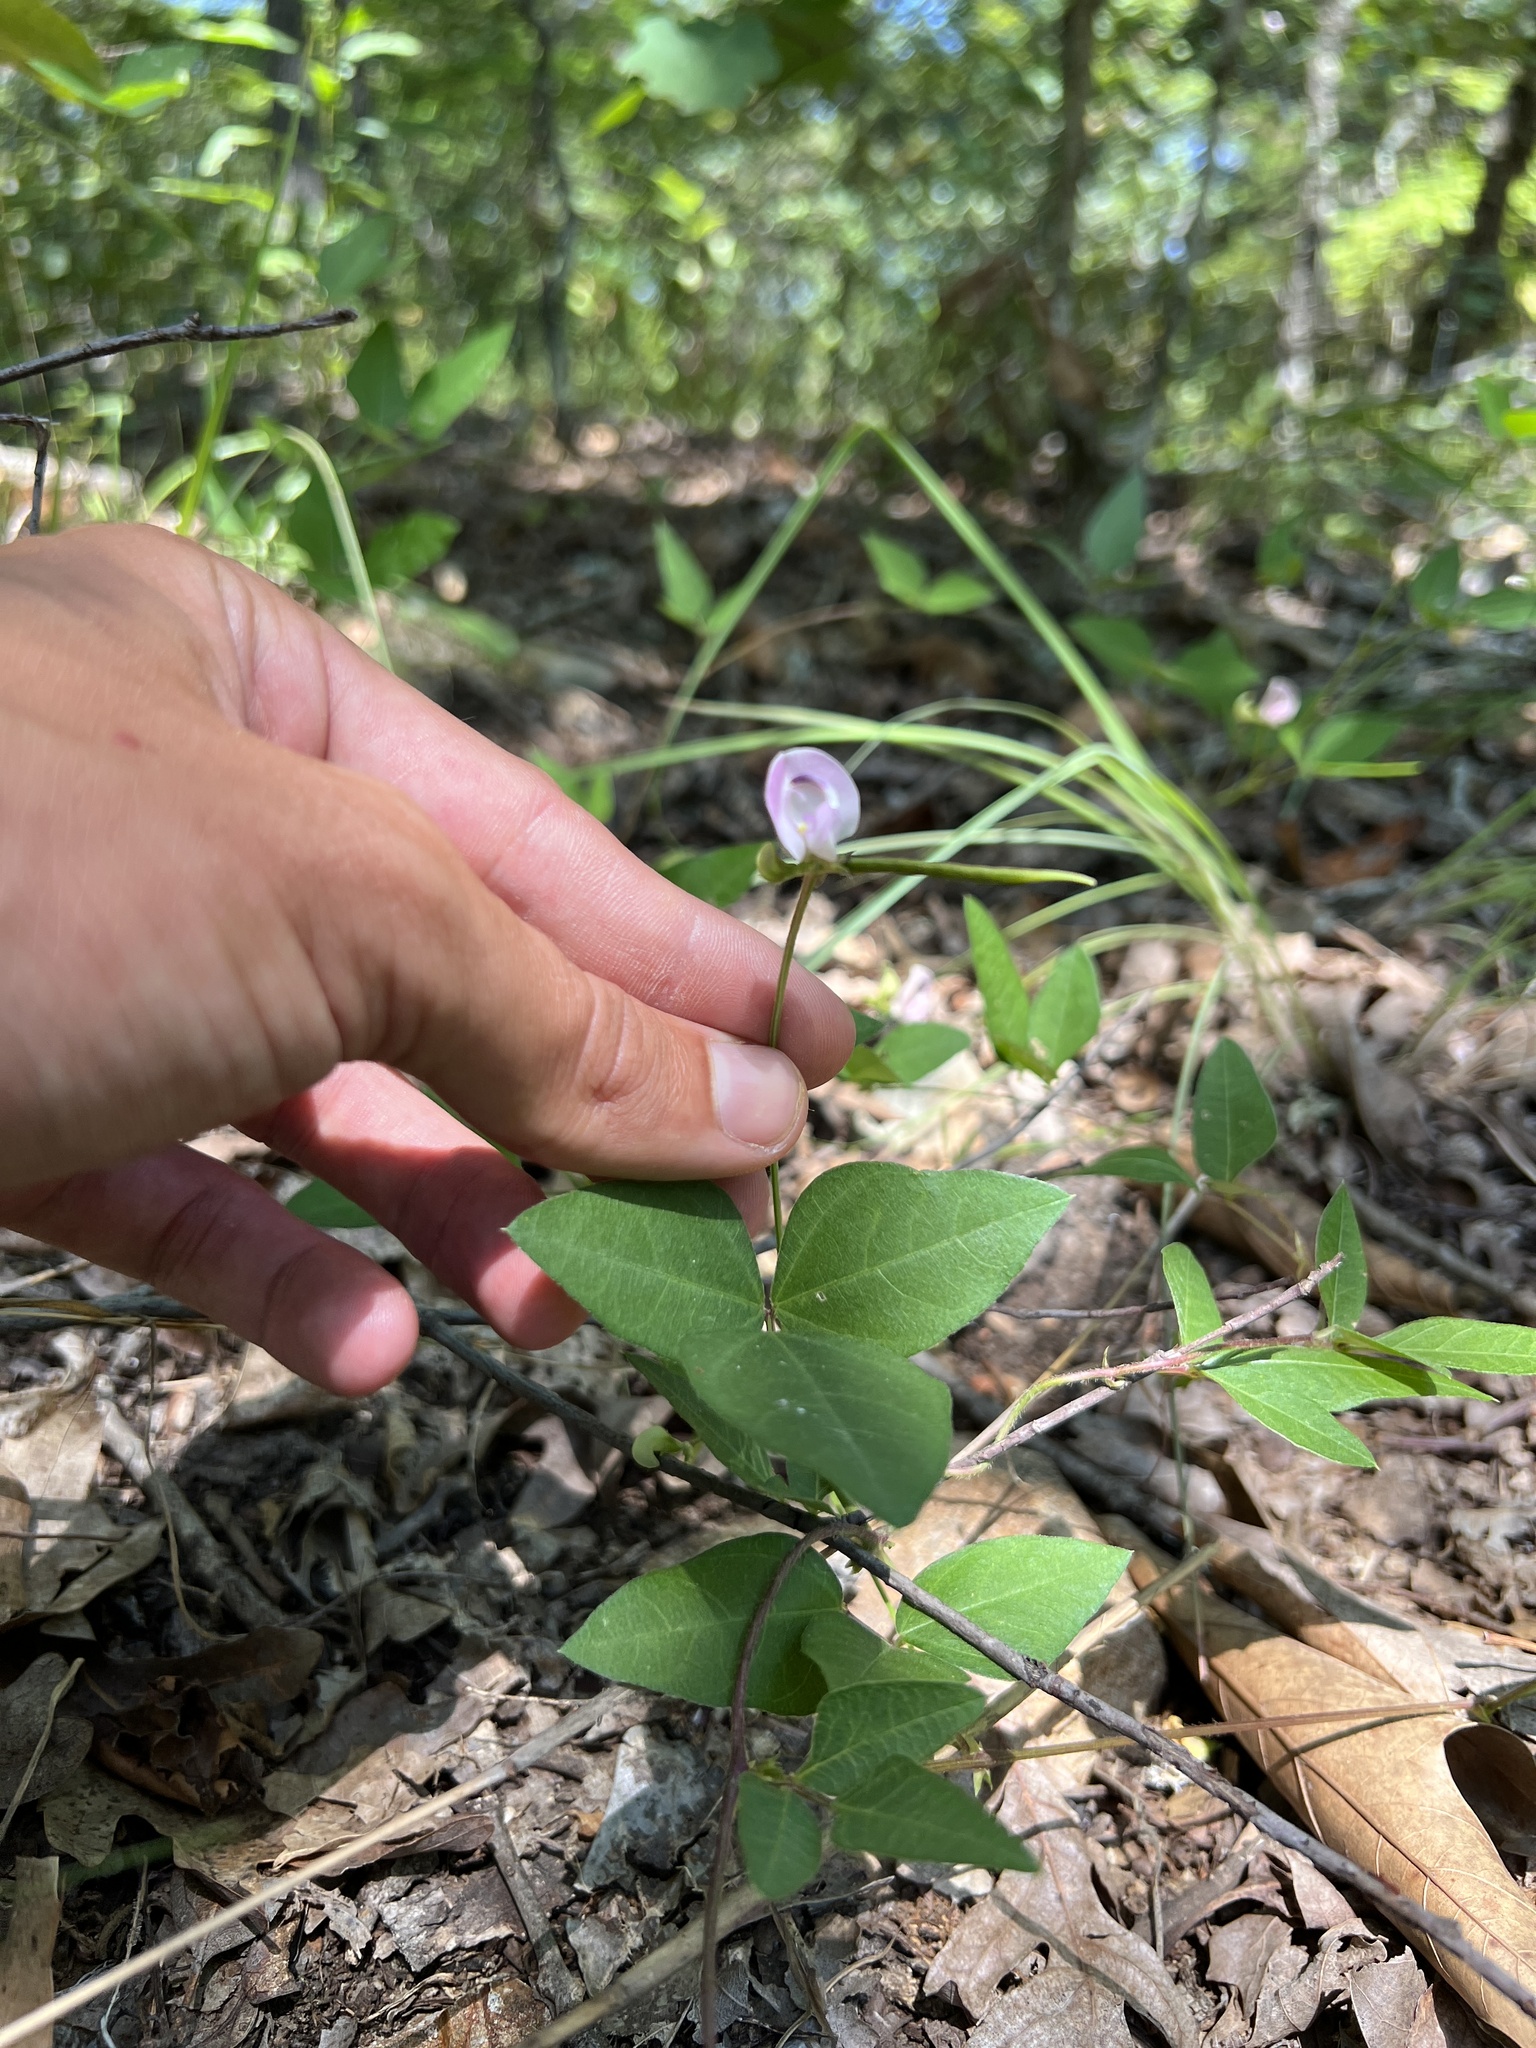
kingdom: Plantae
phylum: Tracheophyta
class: Magnoliopsida
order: Fabales
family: Fabaceae
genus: Strophostyles
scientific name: Strophostyles helvola
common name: Trailing wild bean
